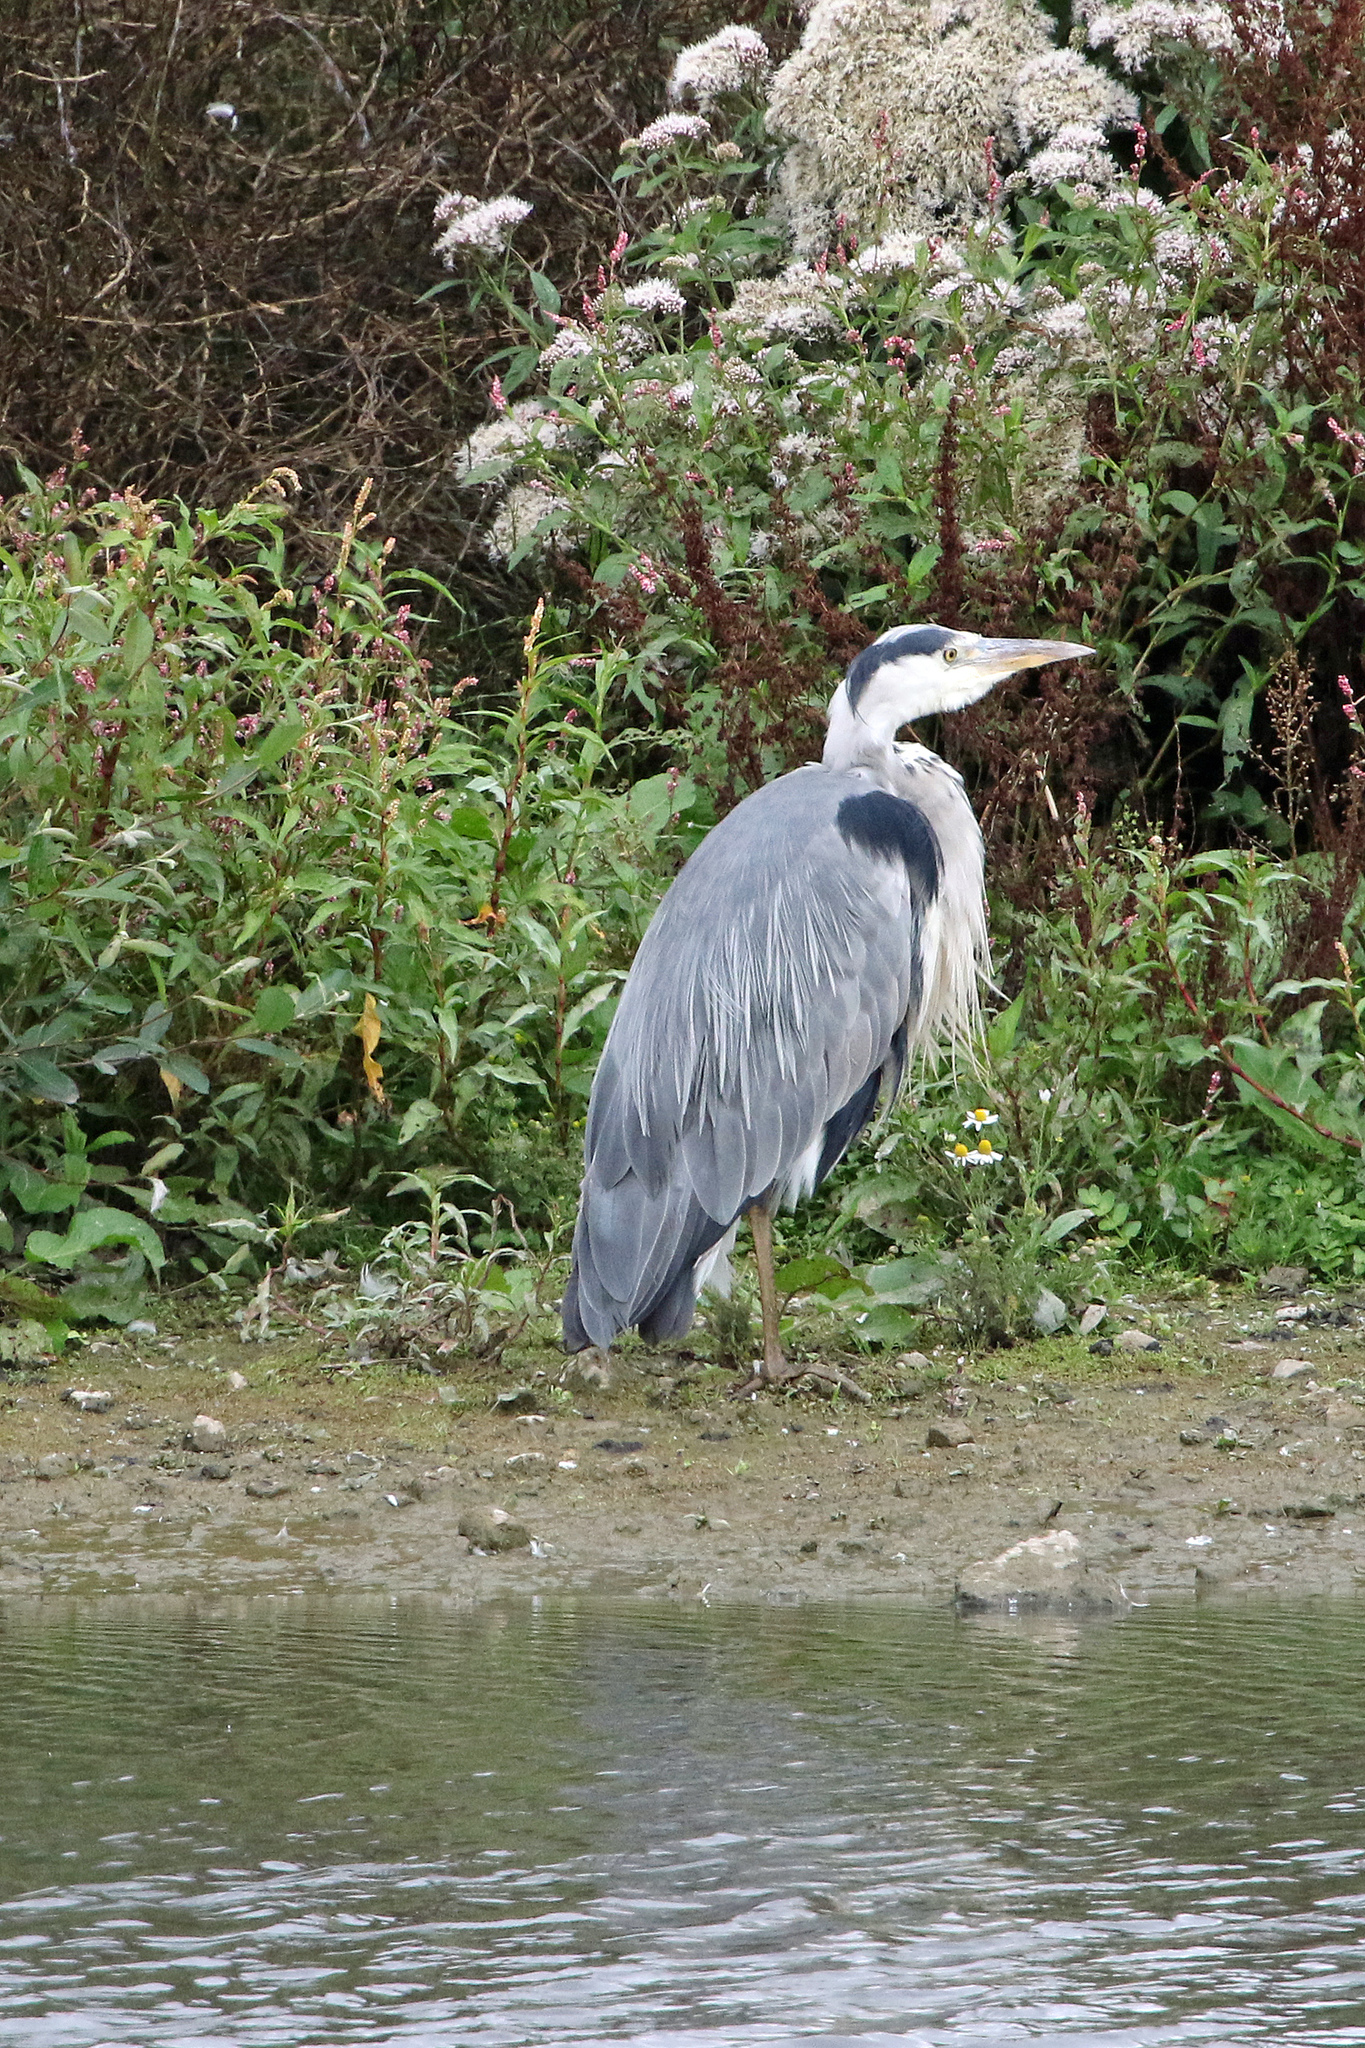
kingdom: Animalia
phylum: Chordata
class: Aves
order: Pelecaniformes
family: Ardeidae
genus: Ardea
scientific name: Ardea cinerea
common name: Grey heron
